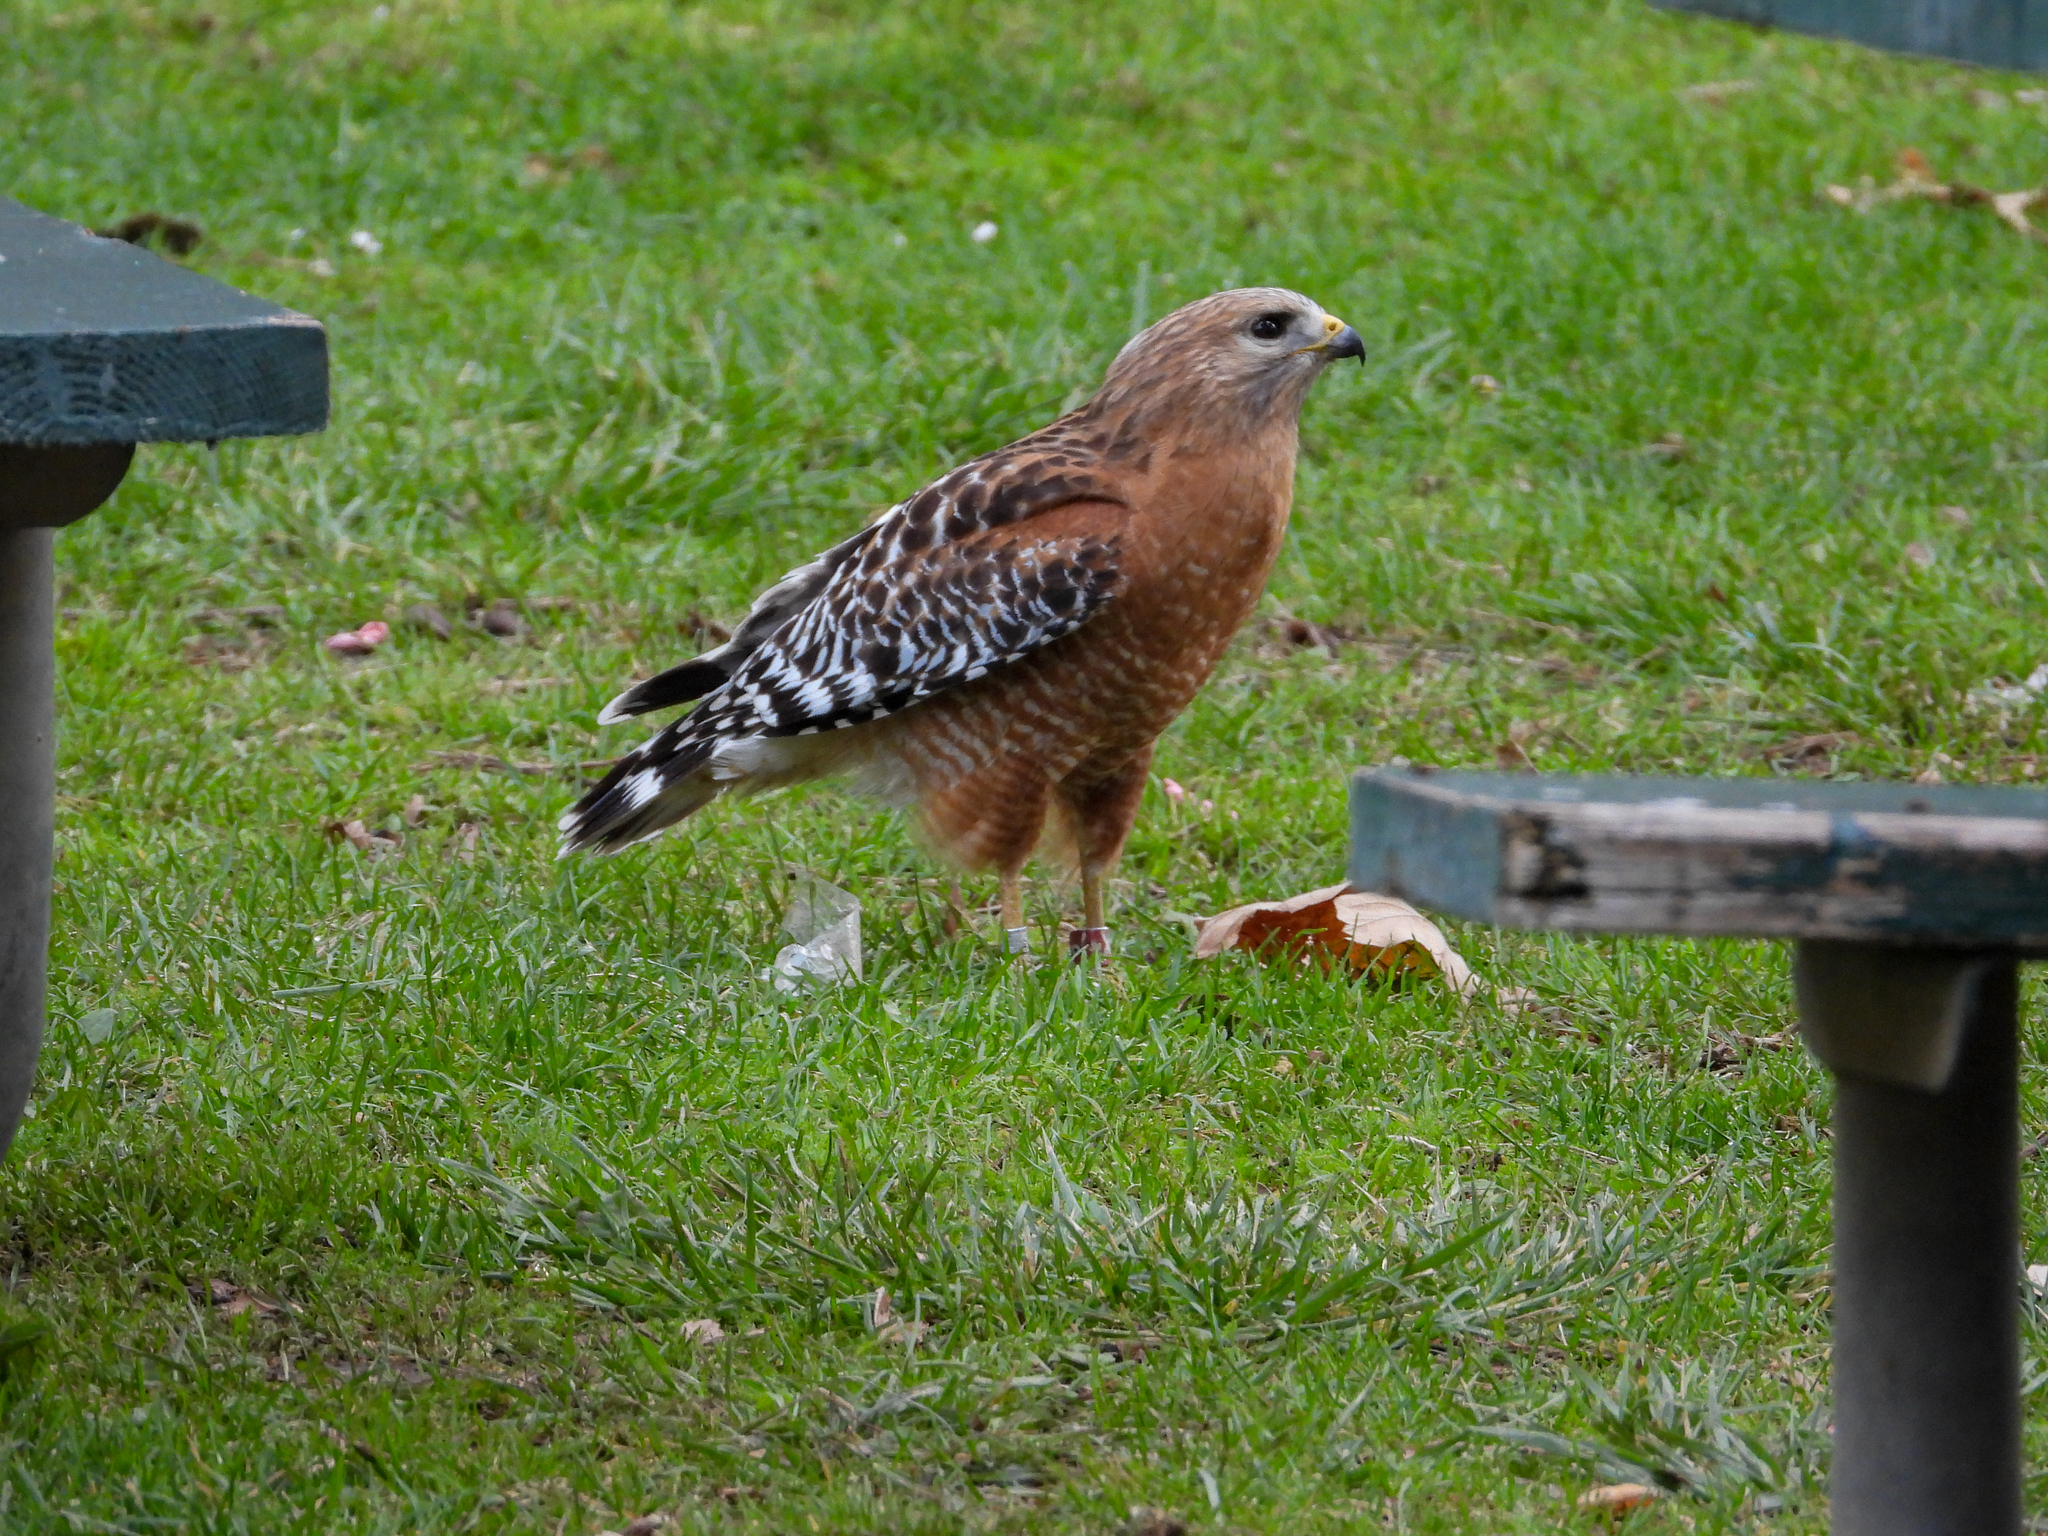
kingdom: Animalia
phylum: Chordata
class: Aves
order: Accipitriformes
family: Accipitridae
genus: Buteo
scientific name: Buteo lineatus
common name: Red-shouldered hawk
